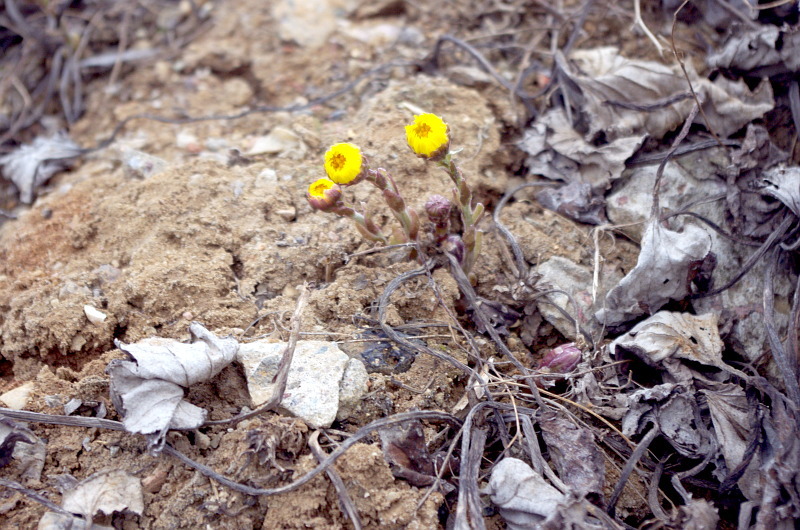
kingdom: Plantae
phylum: Tracheophyta
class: Magnoliopsida
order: Asterales
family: Asteraceae
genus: Tussilago
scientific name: Tussilago farfara
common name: Coltsfoot
